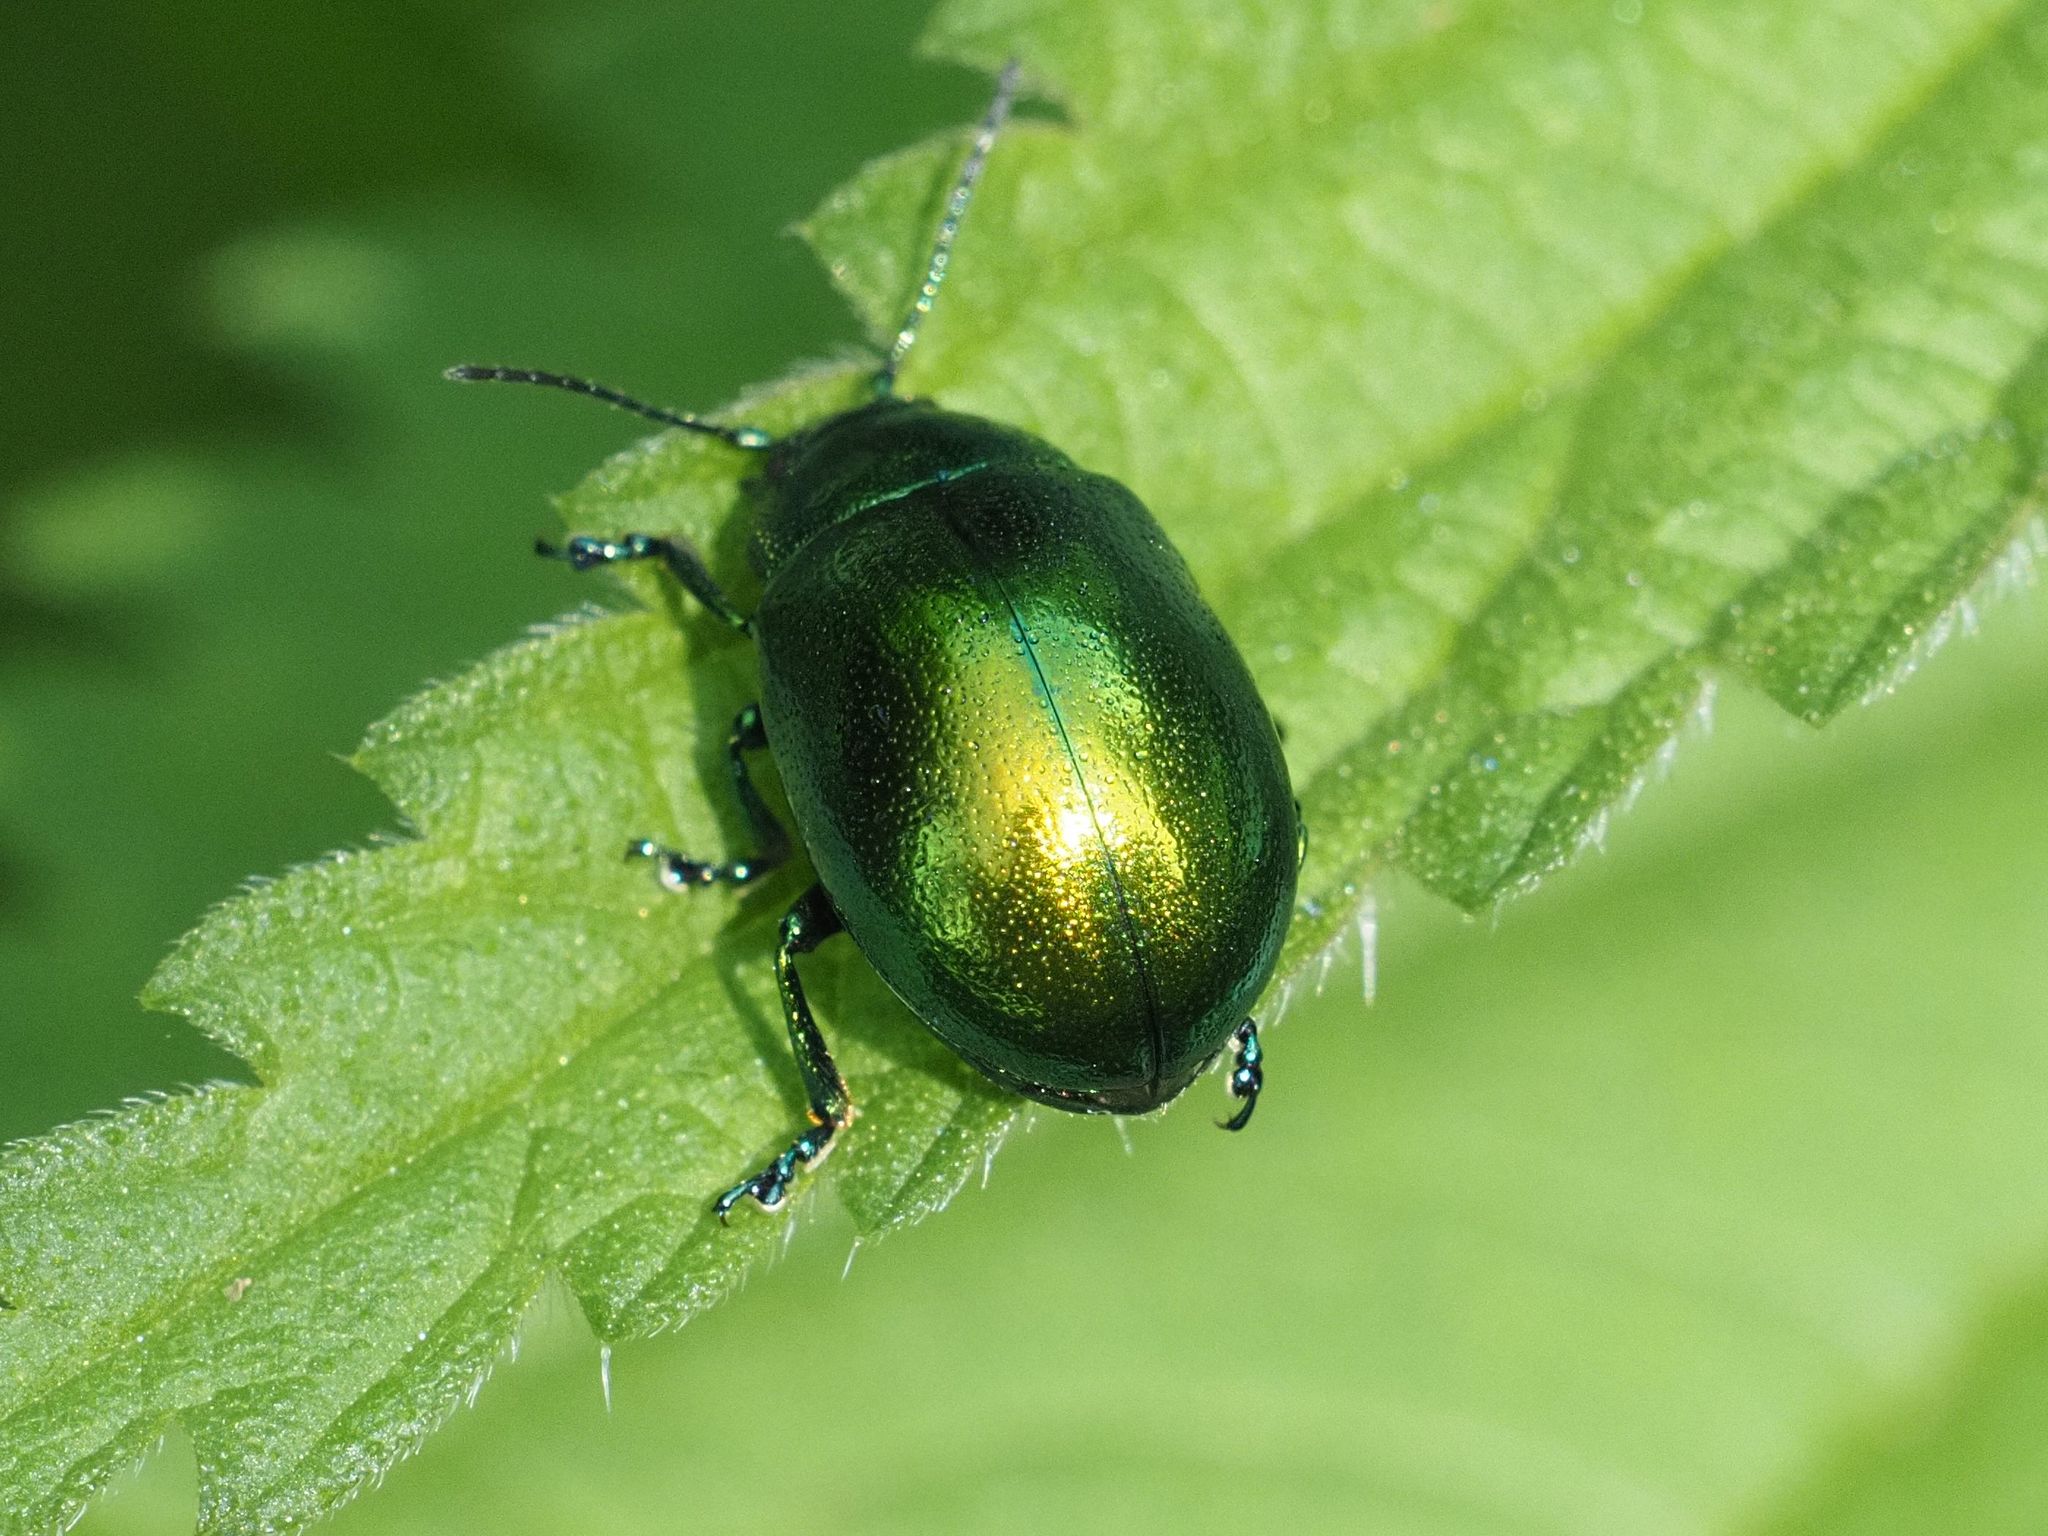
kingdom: Animalia
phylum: Arthropoda
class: Insecta
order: Coleoptera
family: Chrysomelidae
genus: Chrysolina
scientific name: Chrysolina herbacea
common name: Mint leaf beatle
